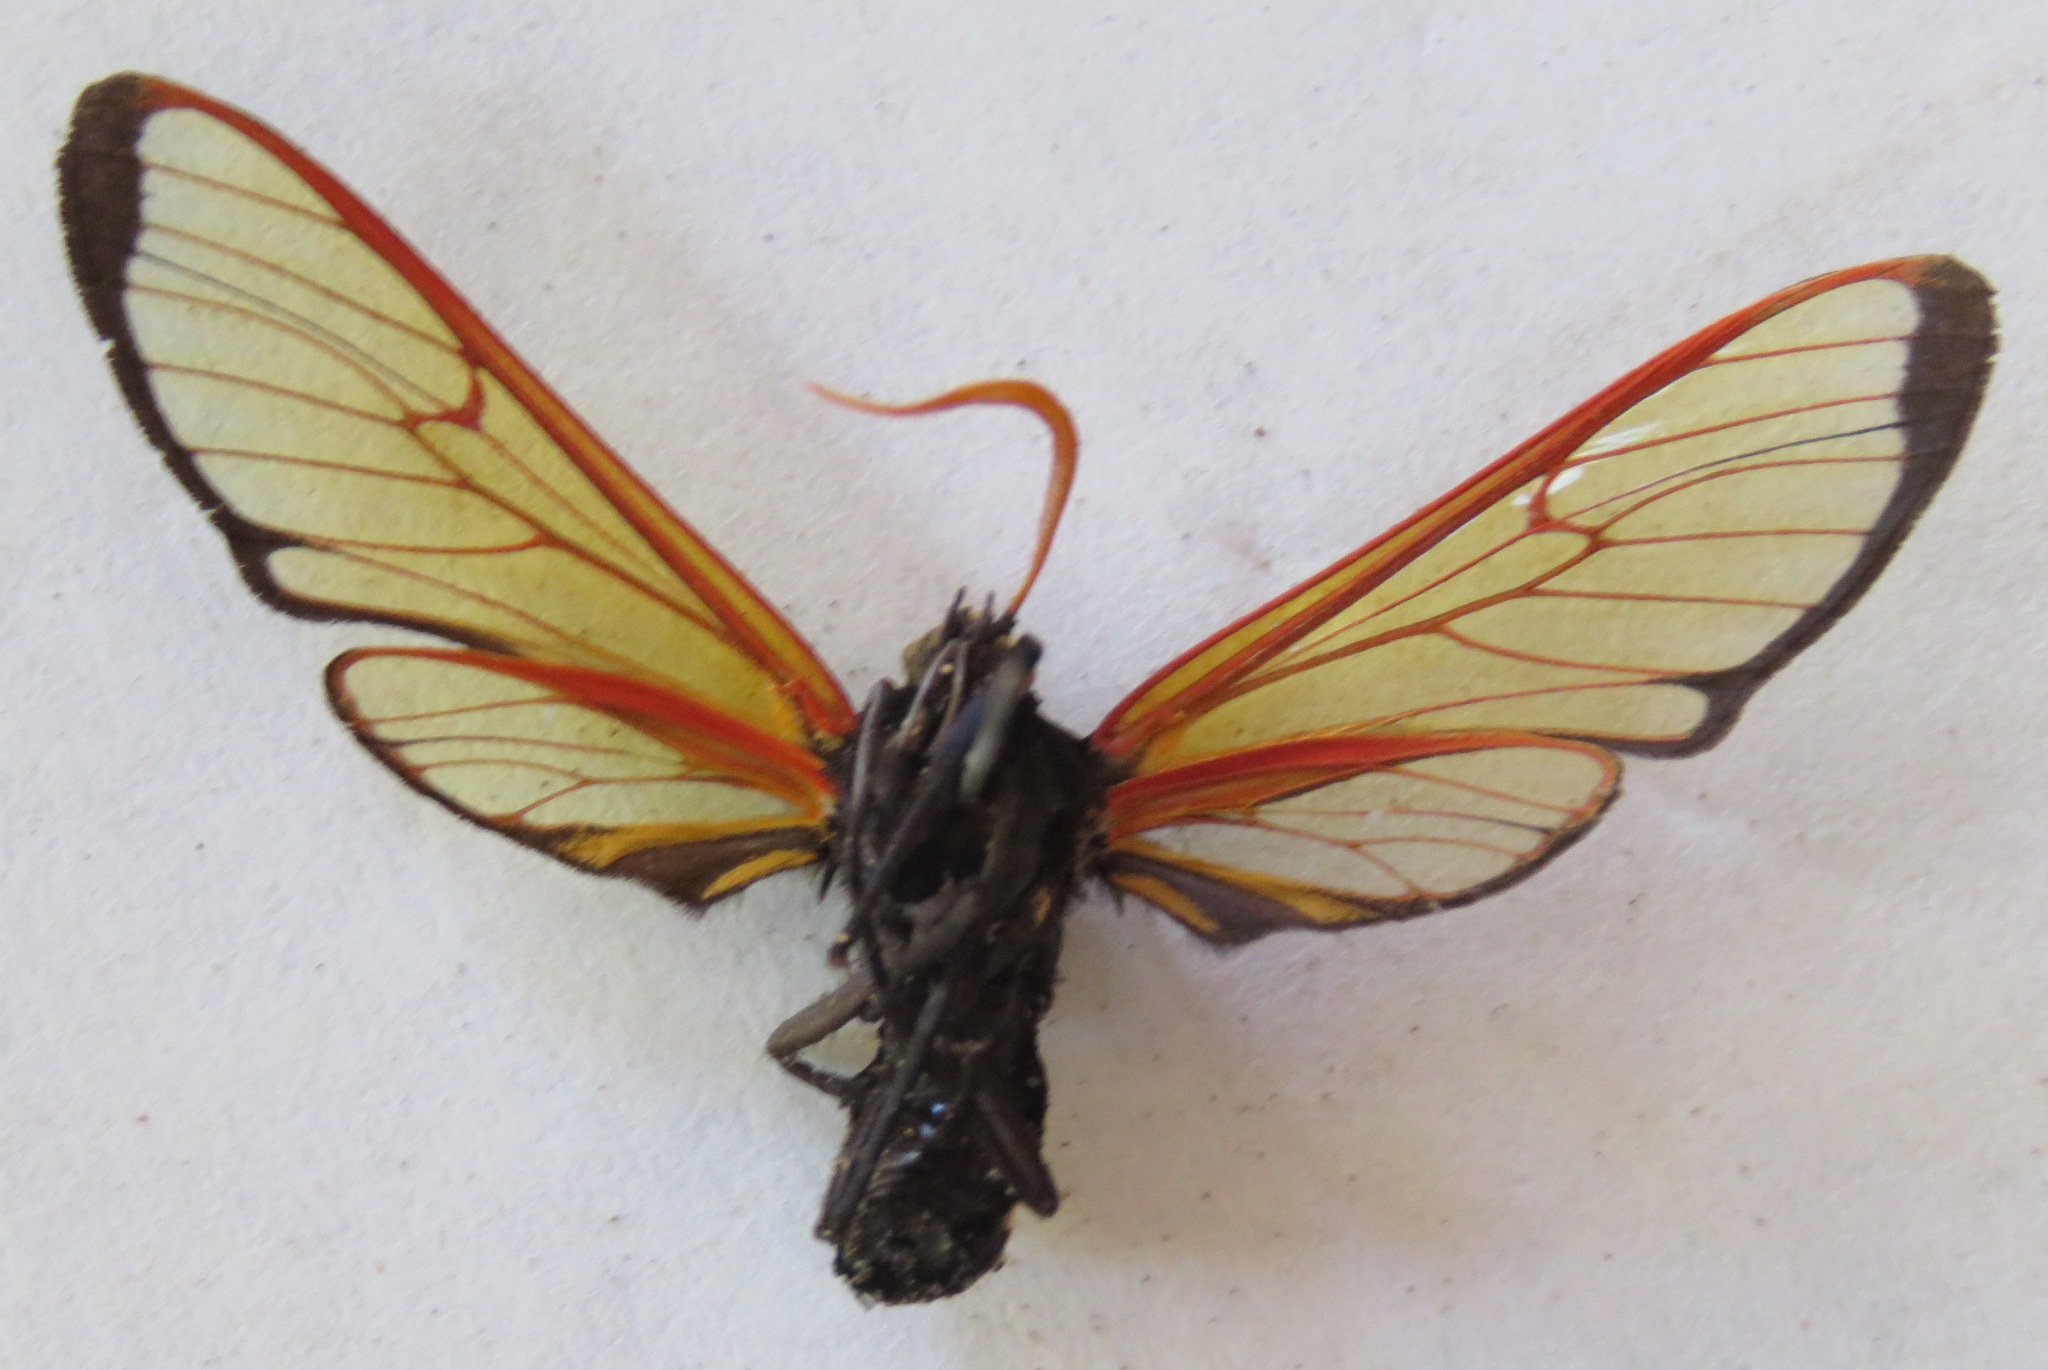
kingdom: Animalia
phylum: Arthropoda
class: Insecta
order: Lepidoptera
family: Erebidae
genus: Isanthrene
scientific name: Isanthrene echemon
